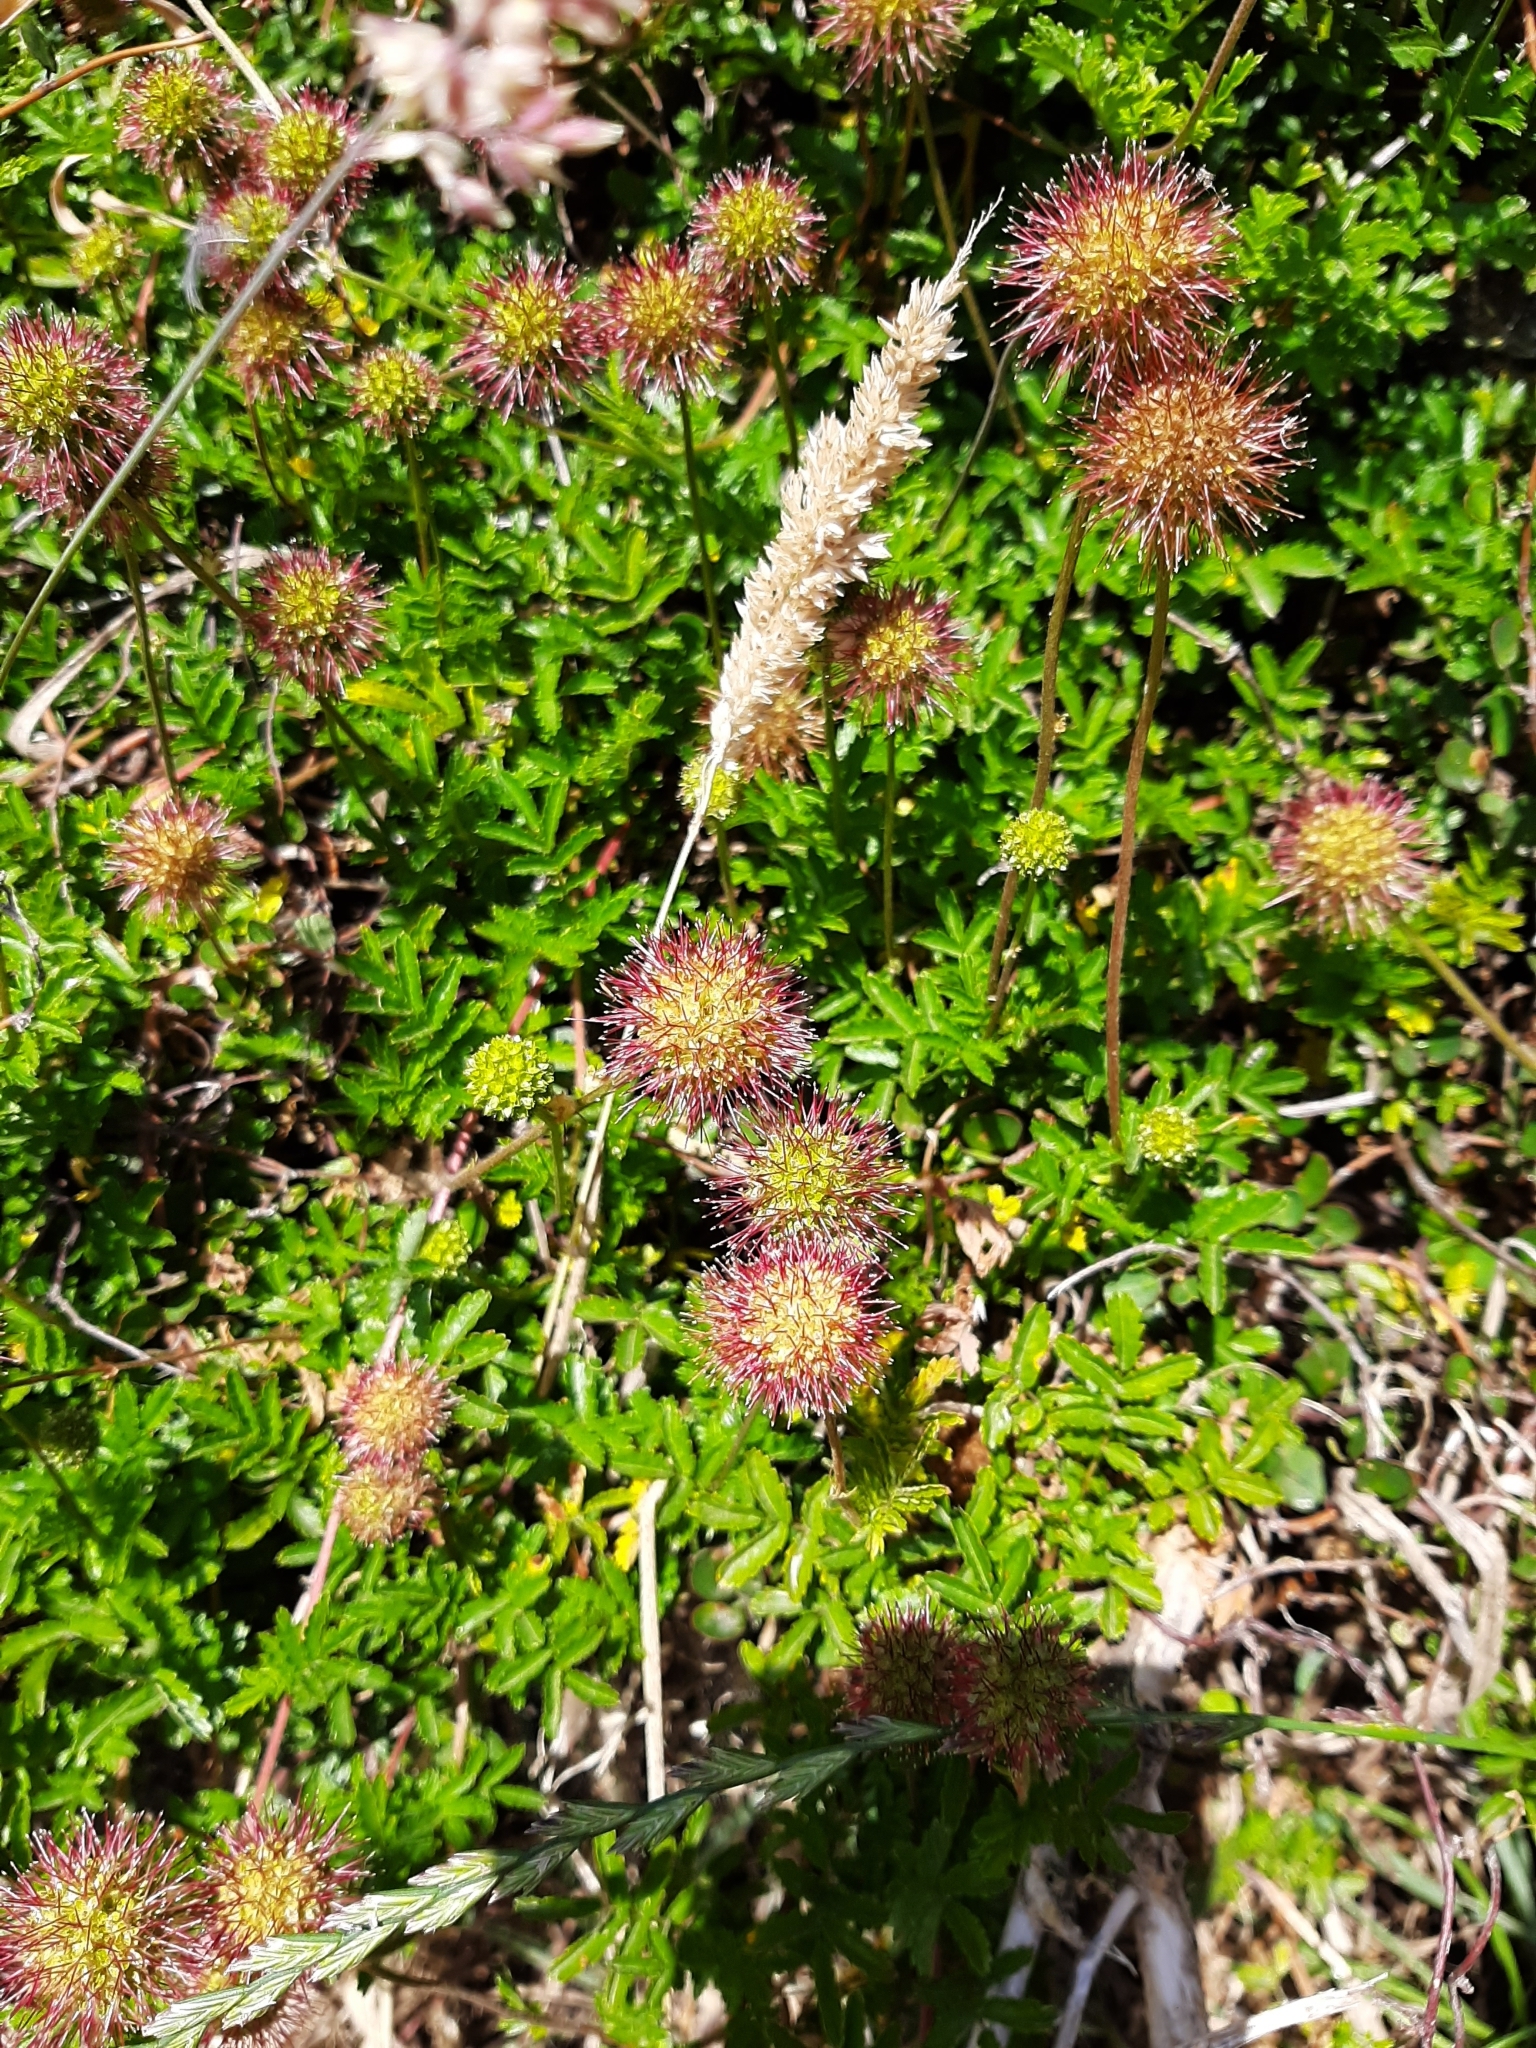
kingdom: Plantae
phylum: Tracheophyta
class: Magnoliopsida
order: Rosales
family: Rosaceae
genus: Acaena
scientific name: Acaena novae-zelandiae
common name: Pirri-pirri-bur
